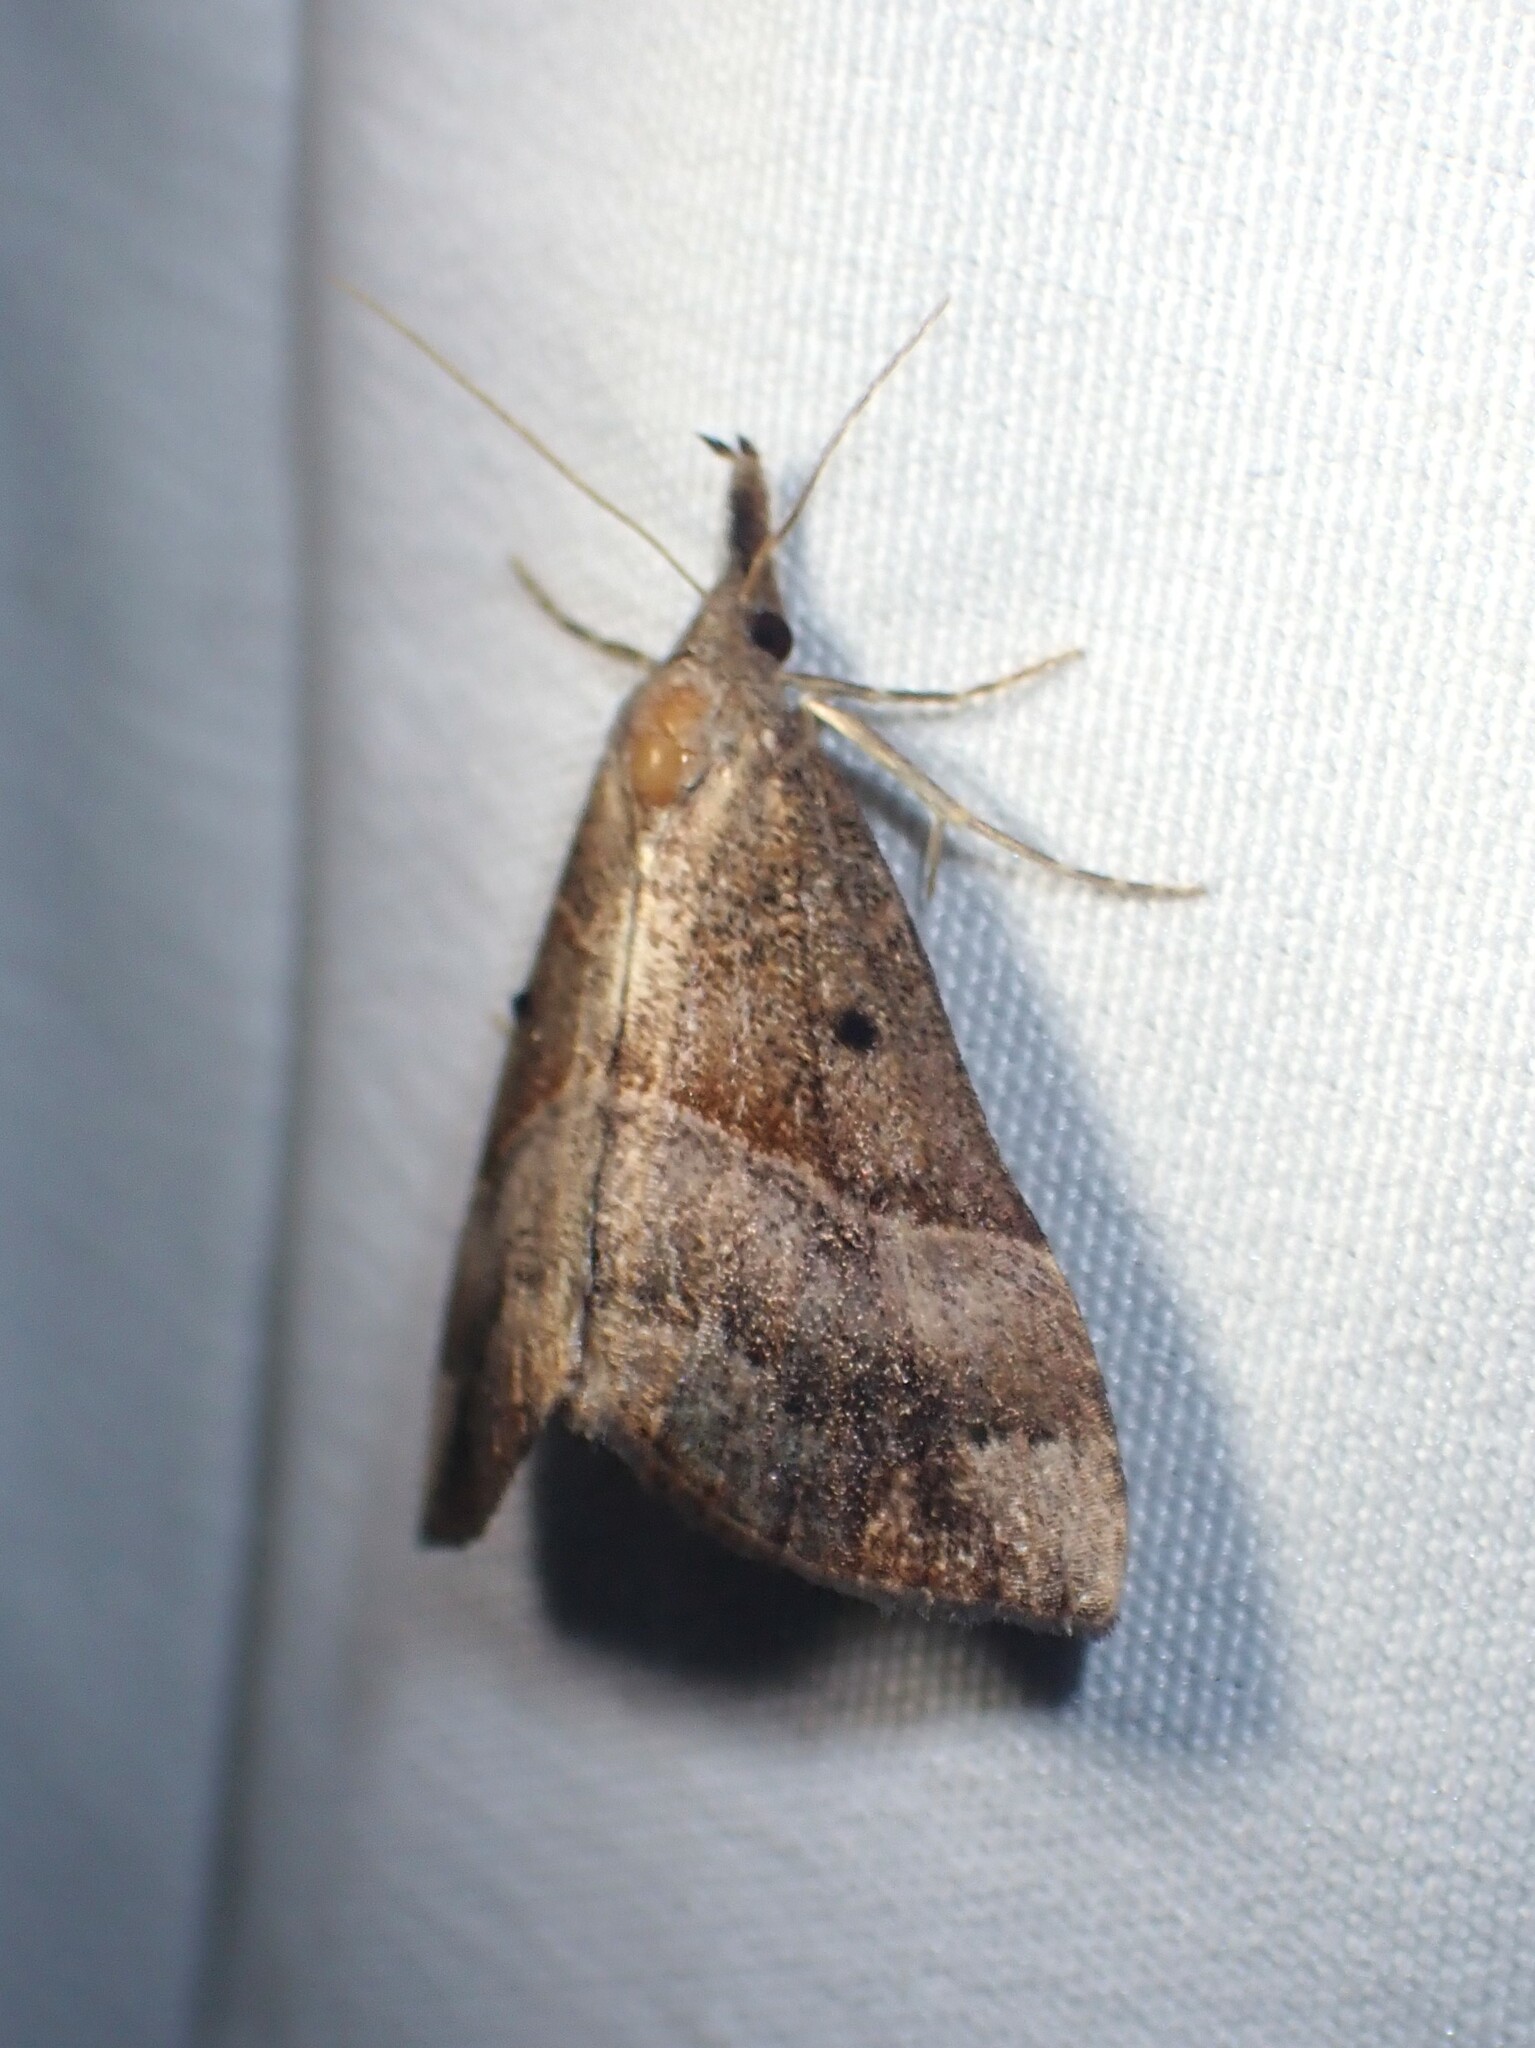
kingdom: Animalia
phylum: Arthropoda
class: Insecta
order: Lepidoptera
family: Erebidae
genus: Hypena
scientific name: Hypena eductalis
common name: Red-footed snout
